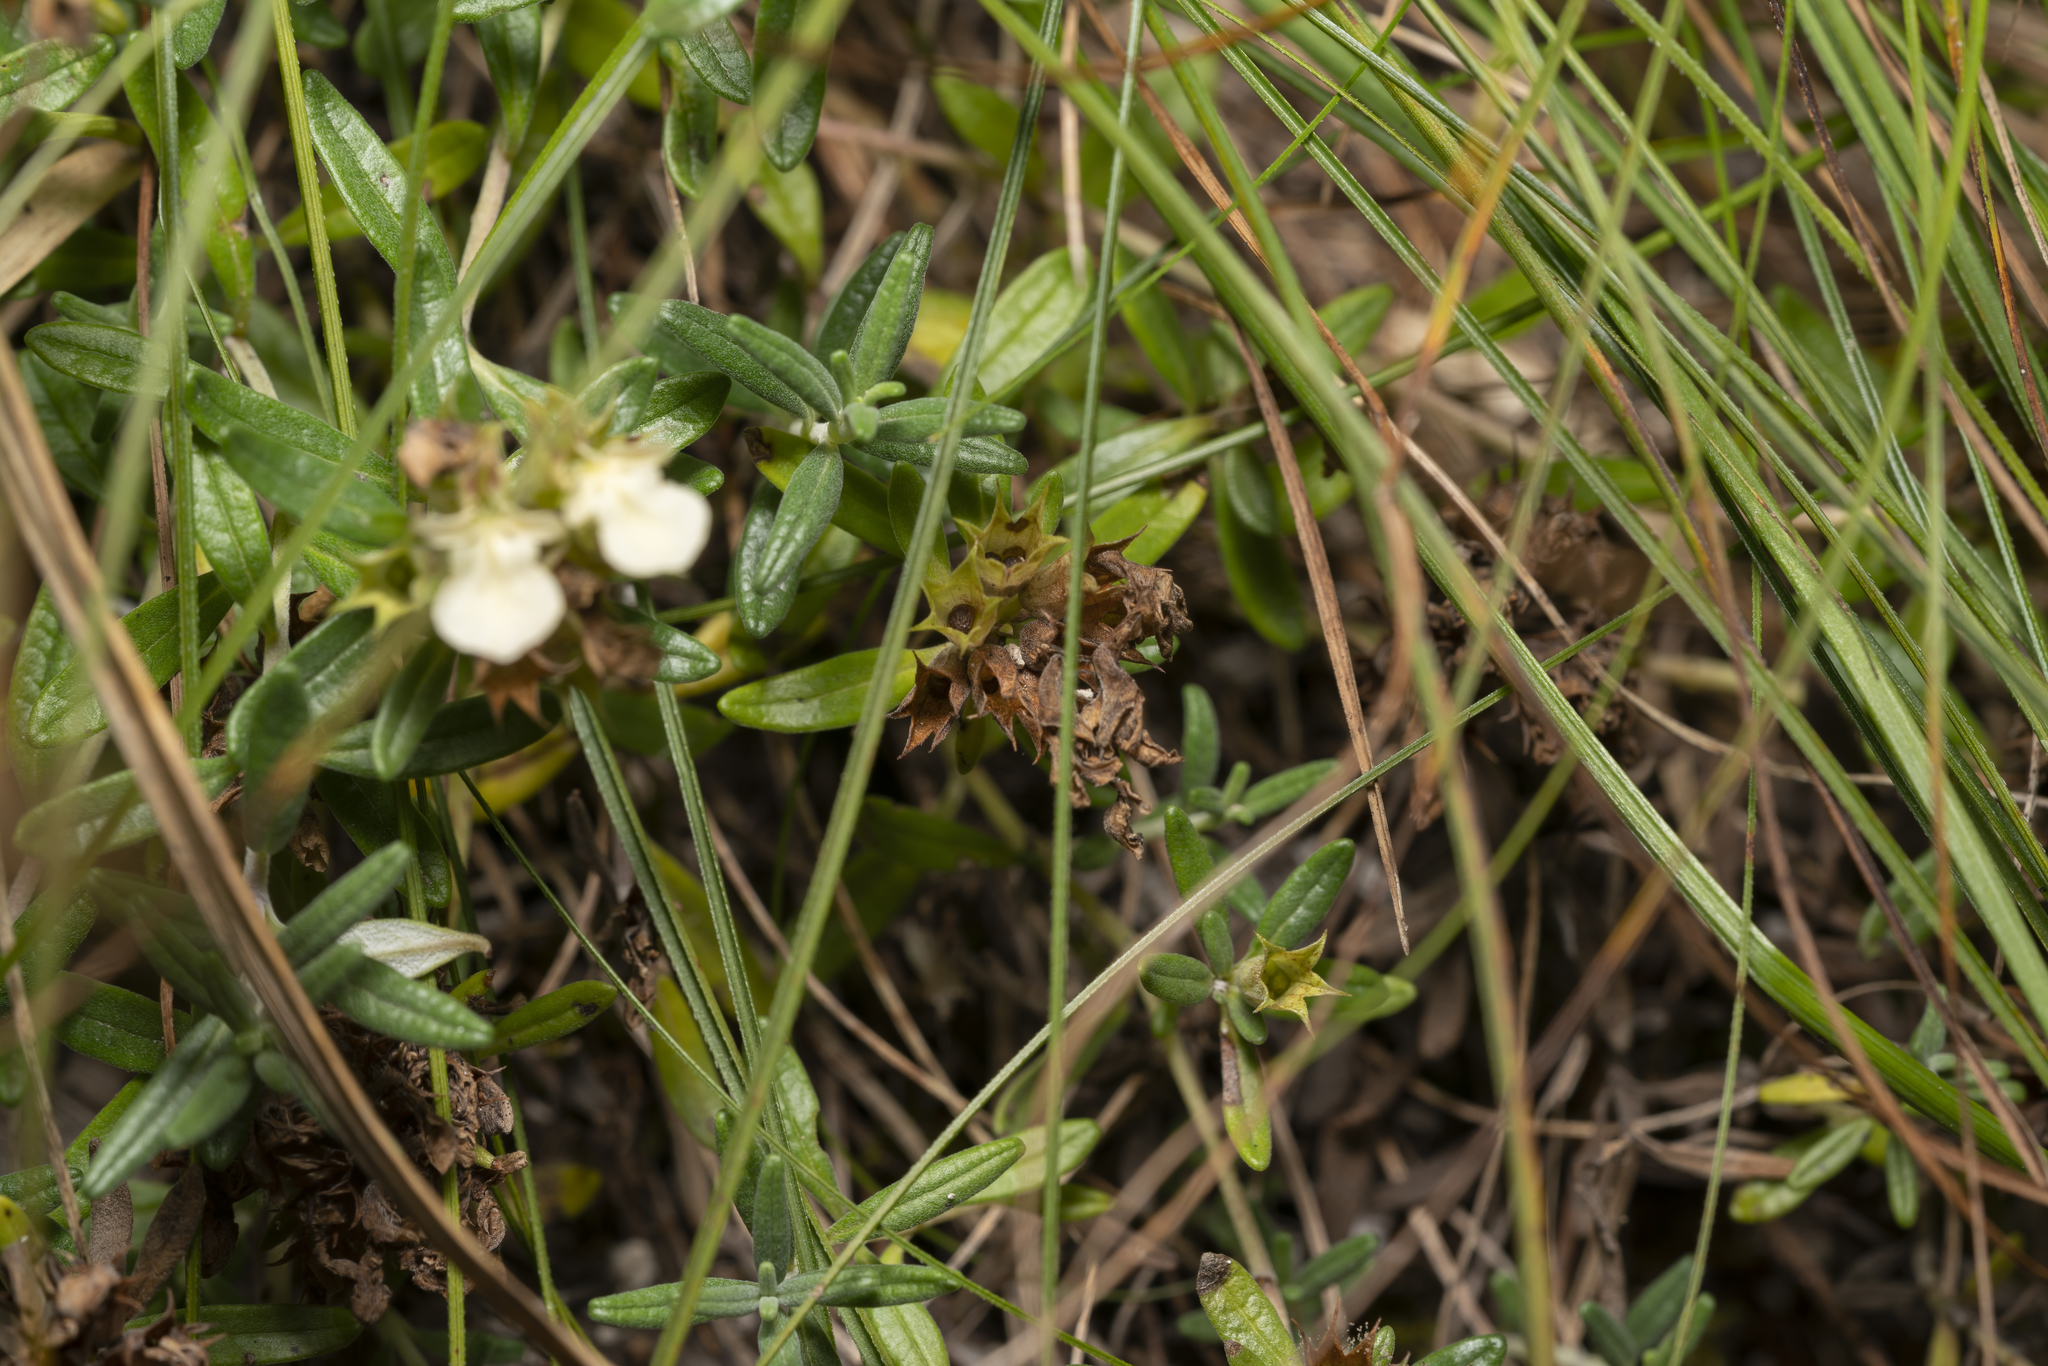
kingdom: Plantae
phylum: Tracheophyta
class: Magnoliopsida
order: Lamiales
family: Lamiaceae
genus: Teucrium
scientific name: Teucrium montanum
